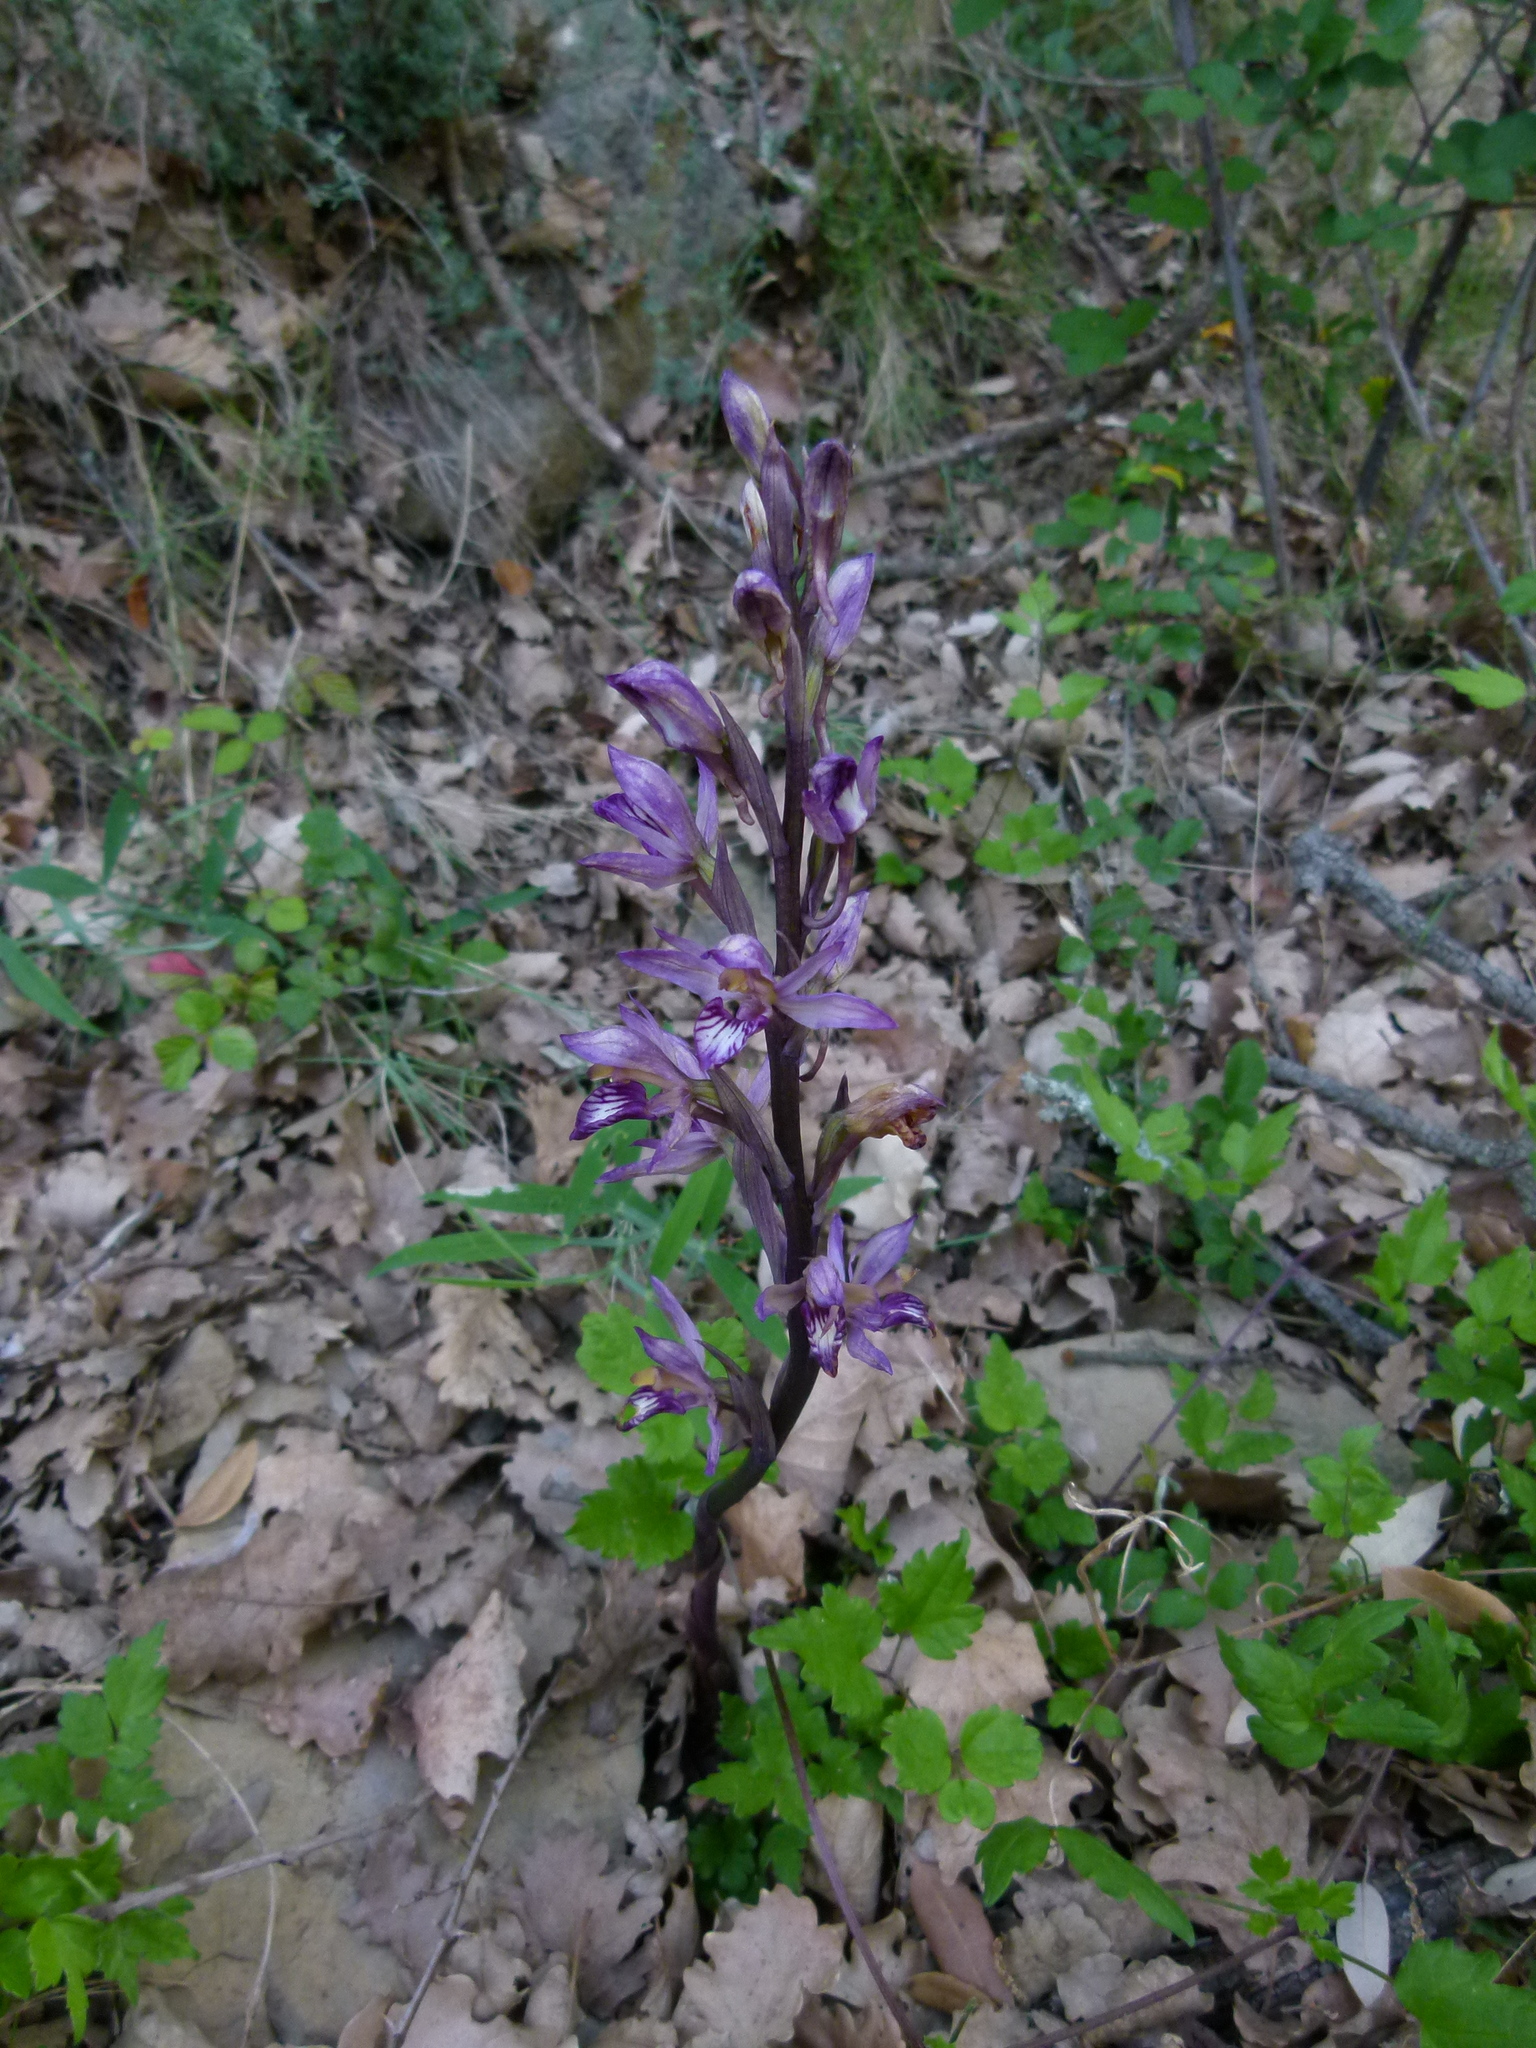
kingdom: Plantae
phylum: Tracheophyta
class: Liliopsida
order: Asparagales
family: Orchidaceae
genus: Limodorum
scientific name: Limodorum abortivum
